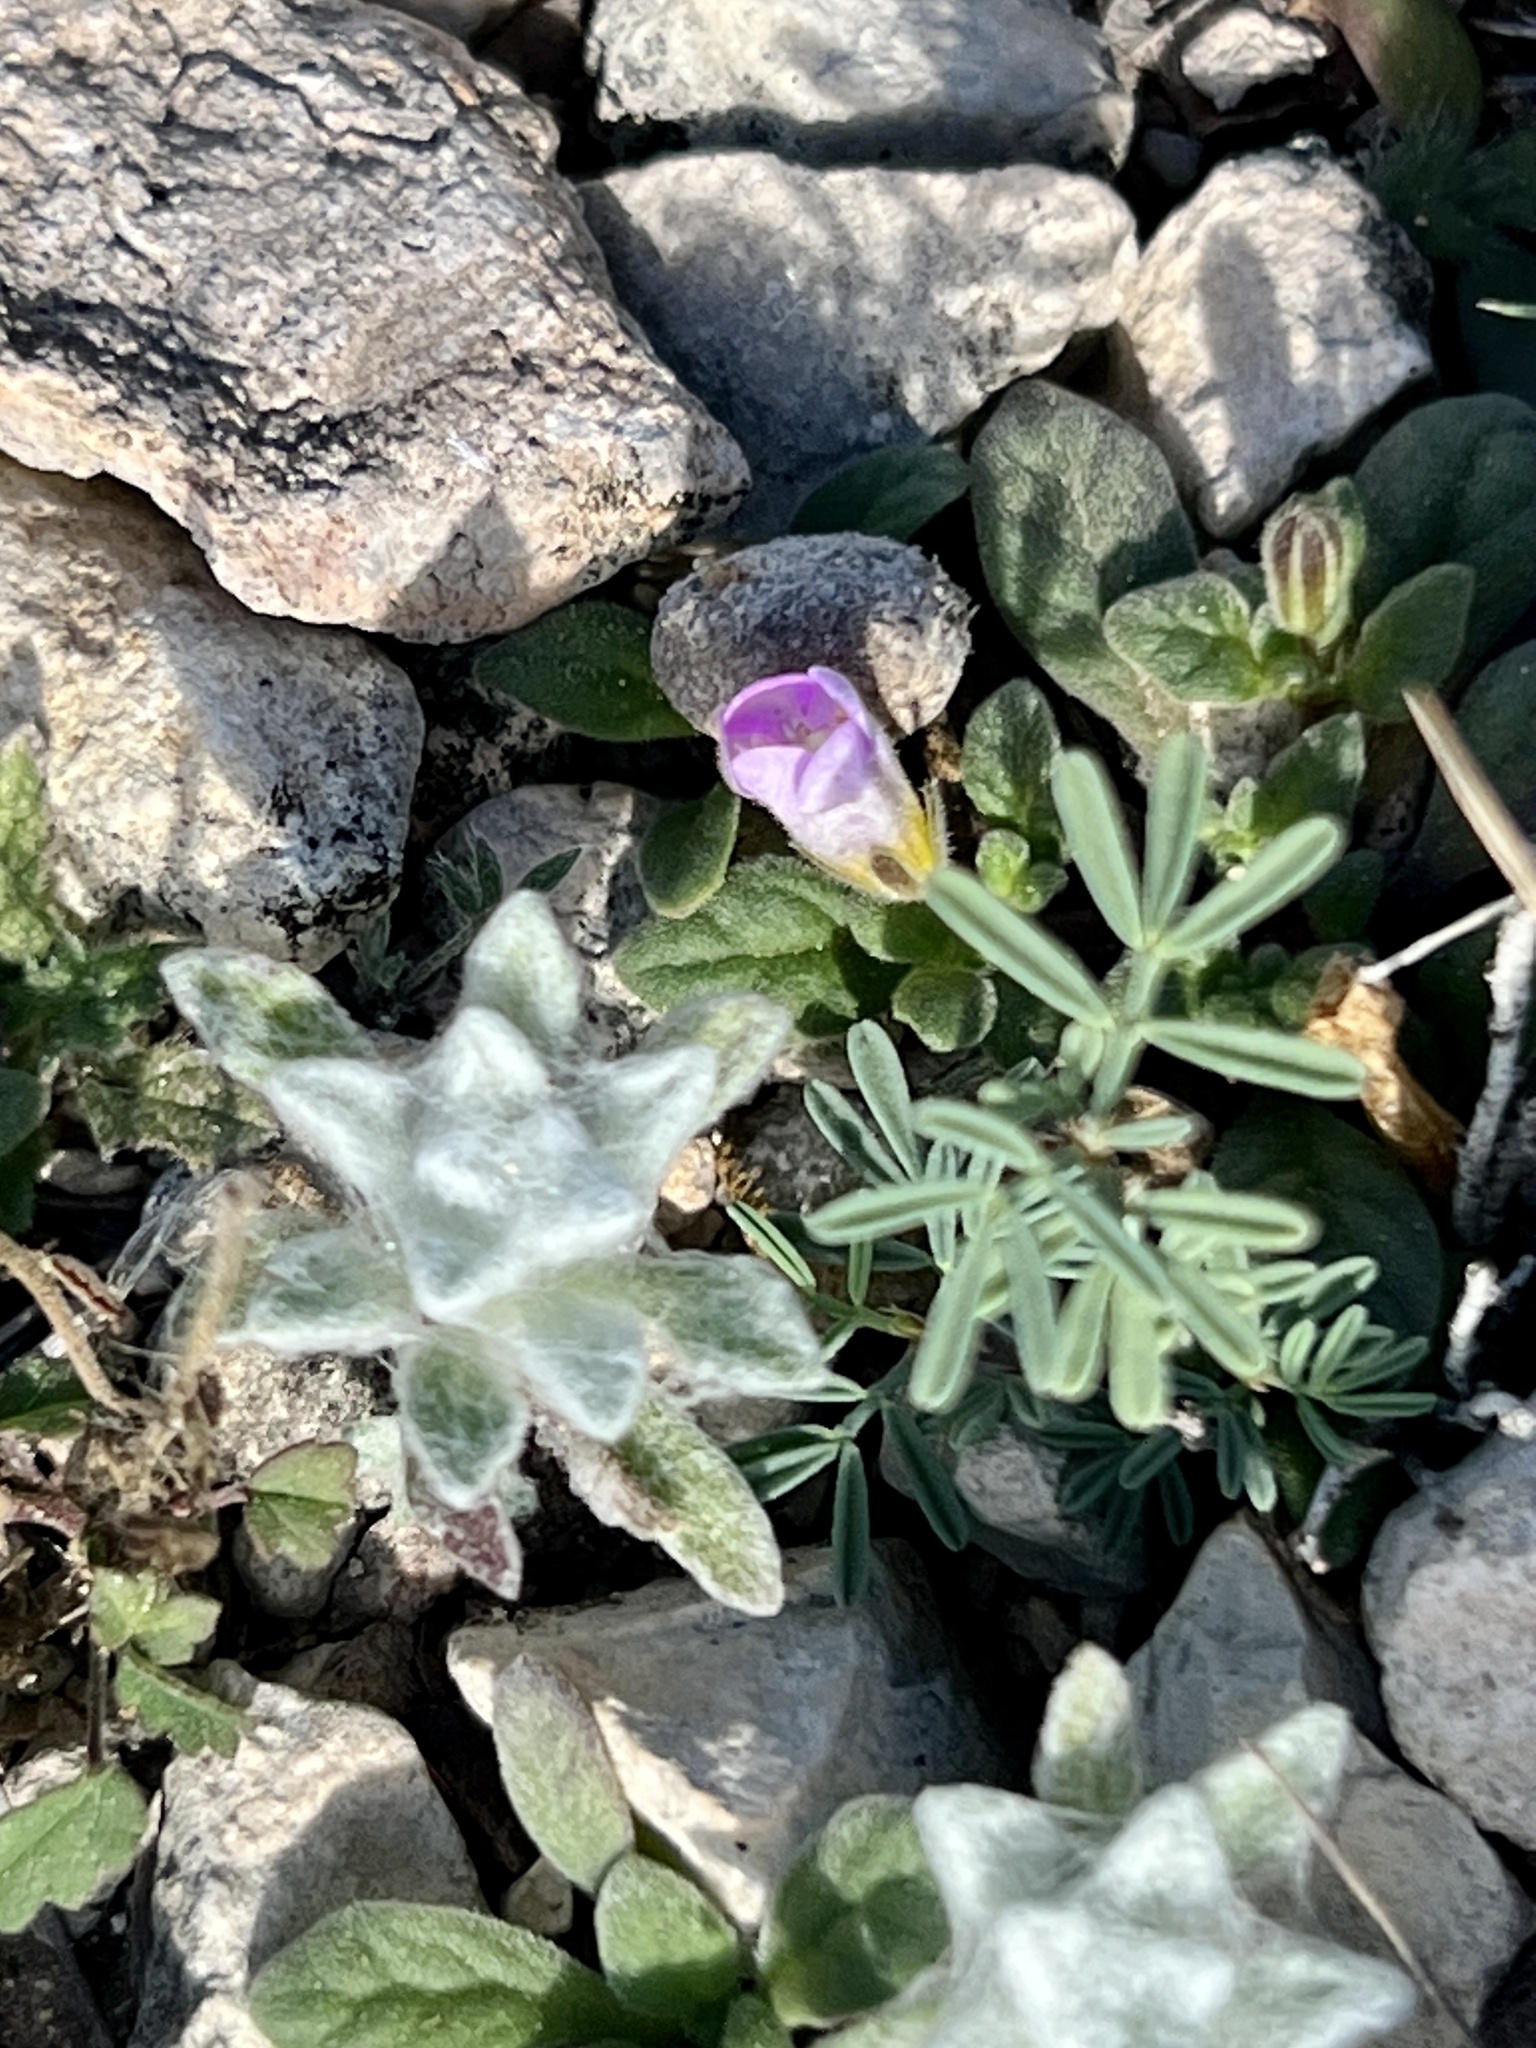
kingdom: Plantae
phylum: Tracheophyta
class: Magnoliopsida
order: Fabales
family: Fabaceae
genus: Dalea
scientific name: Dalea pogonathera
